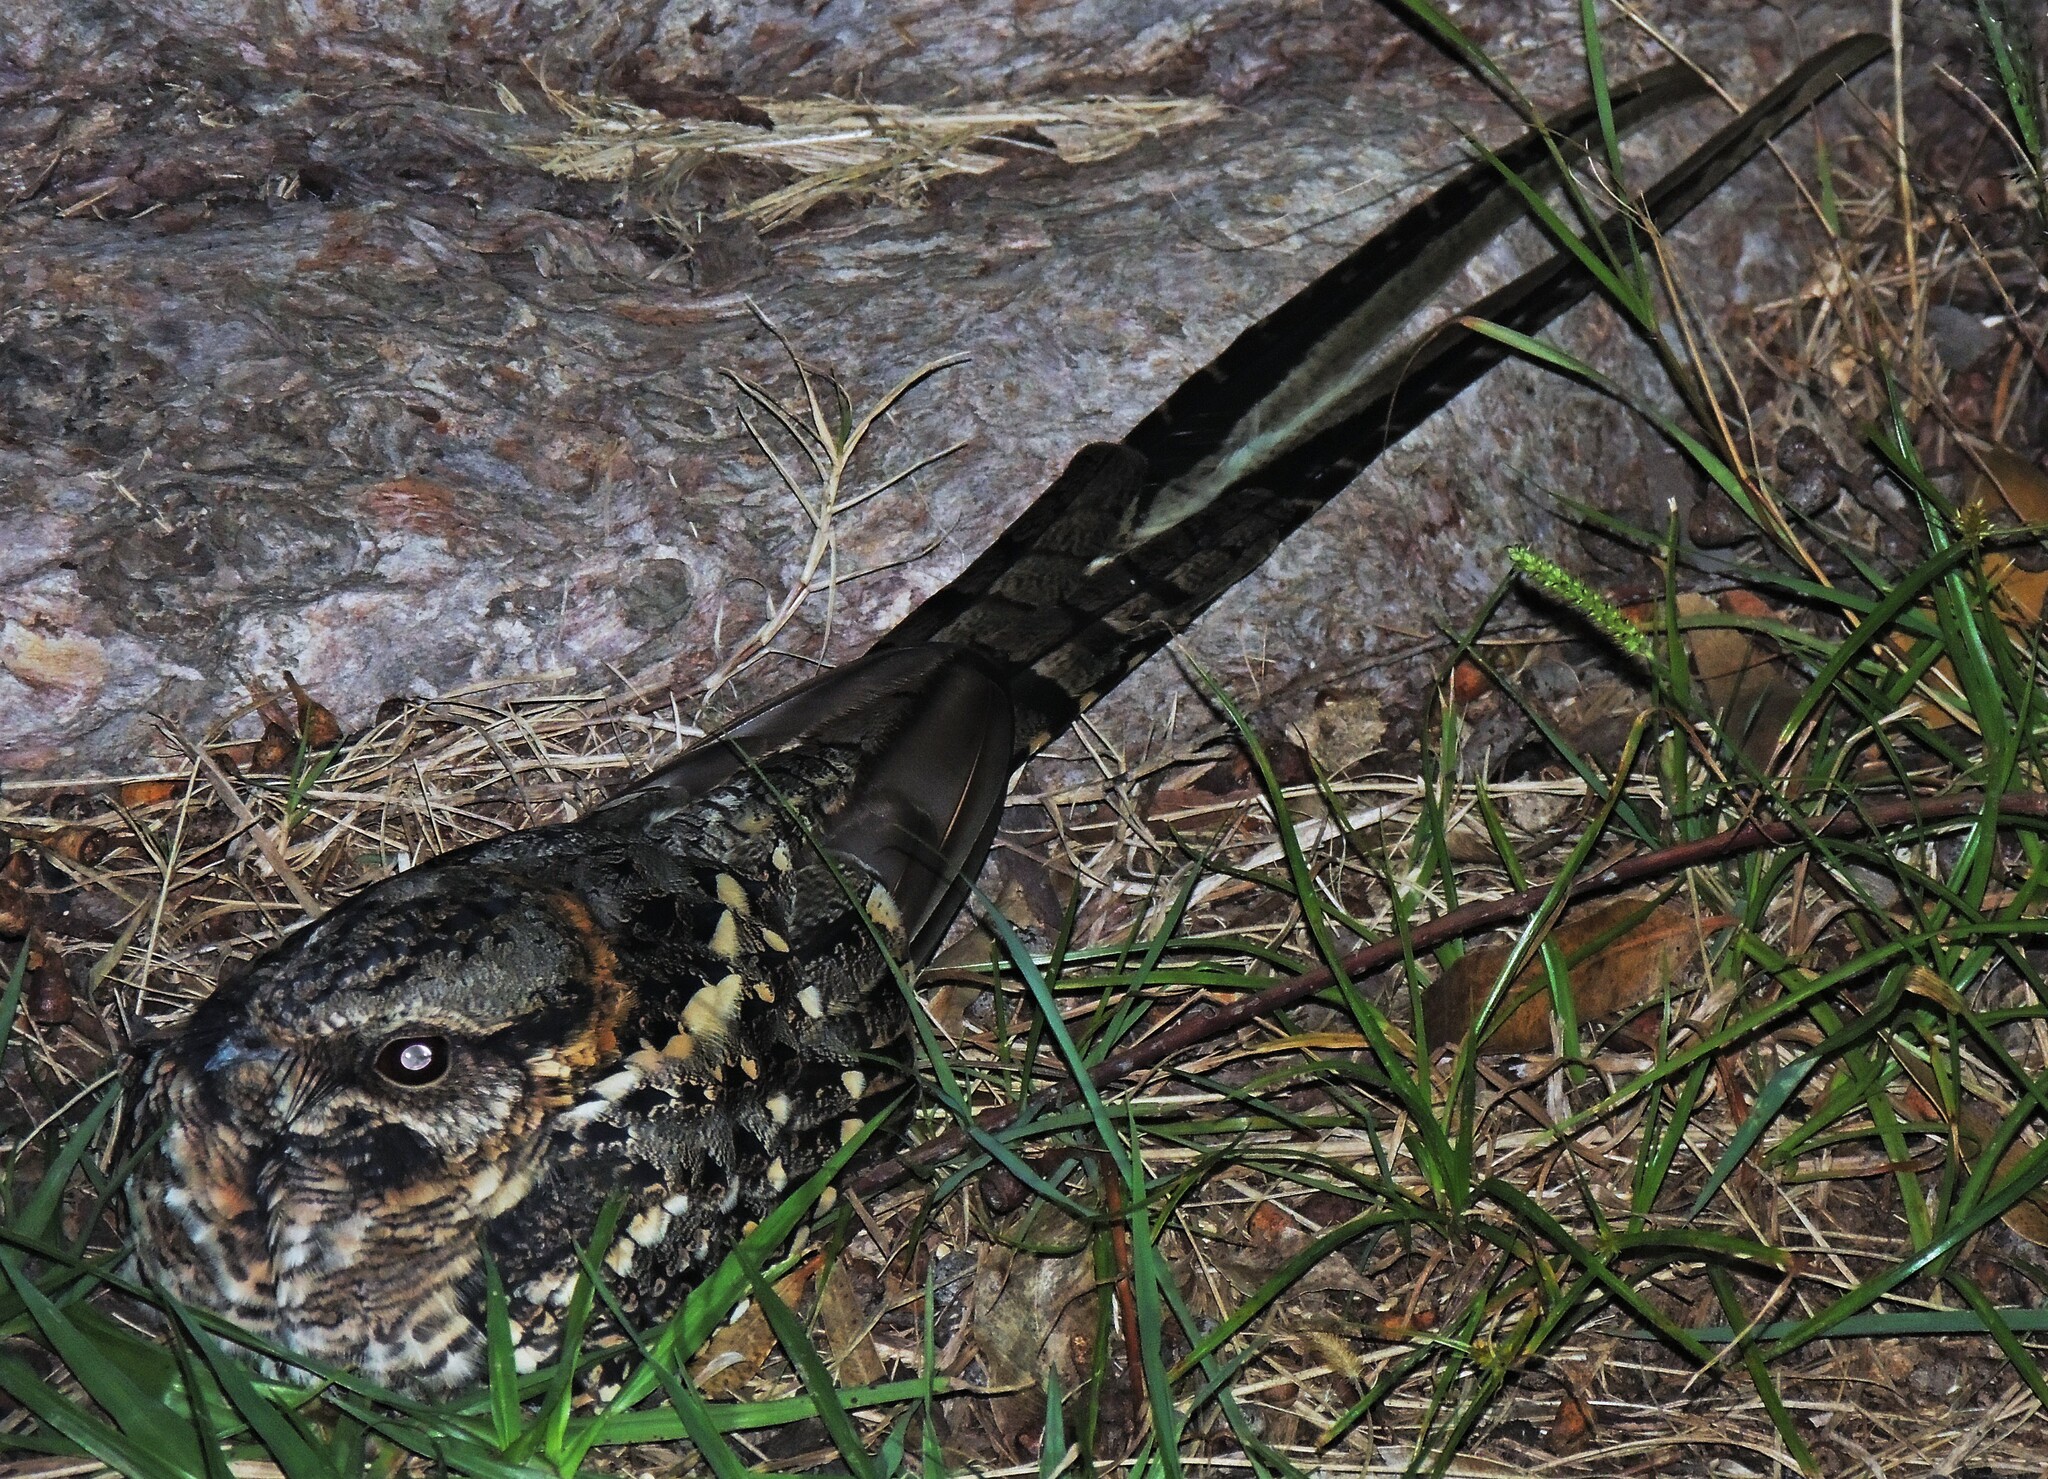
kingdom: Animalia
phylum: Chordata
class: Aves
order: Caprimulgiformes
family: Caprimulgidae
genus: Hydropsalis
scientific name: Hydropsalis torquata
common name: Scissor-tailed nightjar
